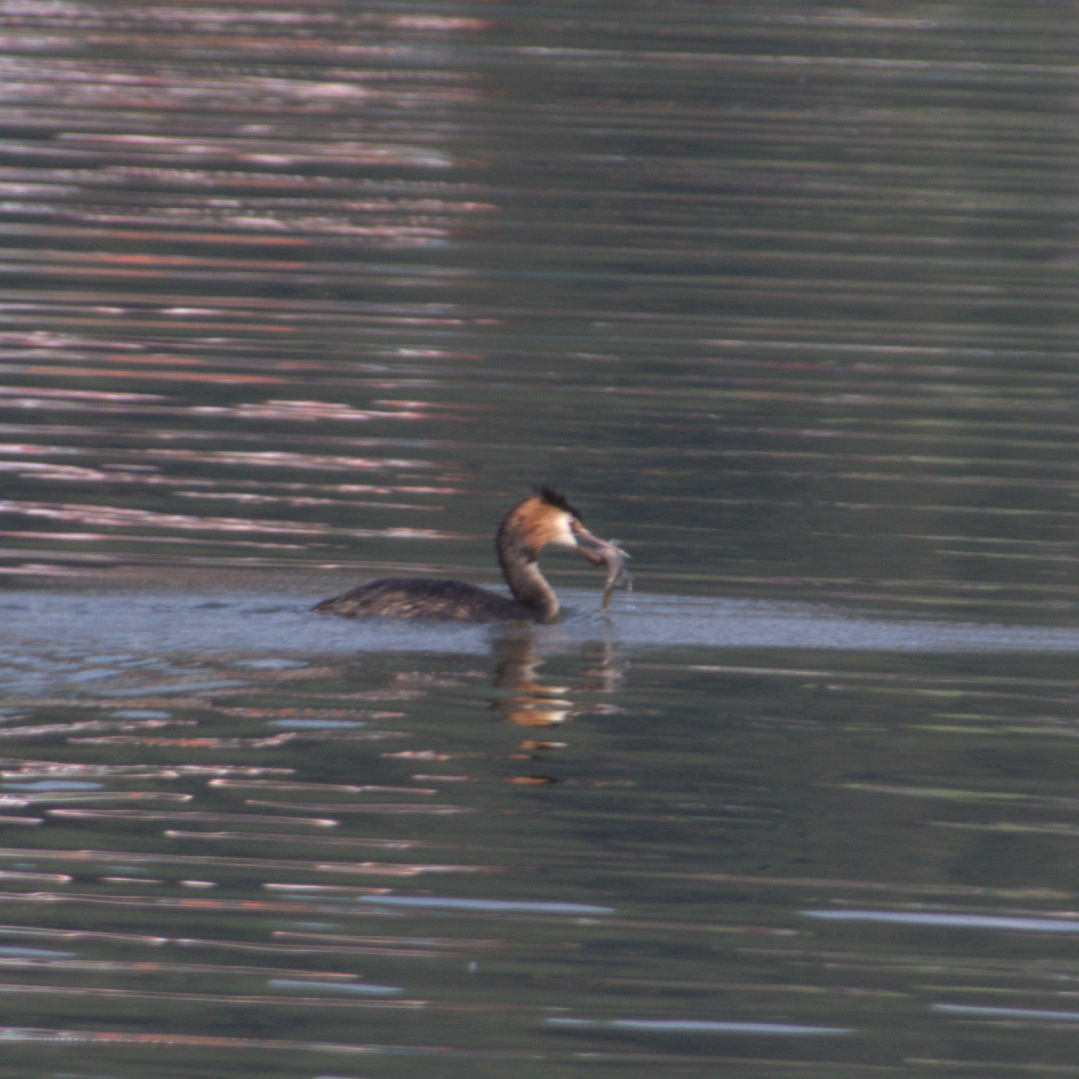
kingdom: Animalia
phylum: Chordata
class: Aves
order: Podicipediformes
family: Podicipedidae
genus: Podiceps
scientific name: Podiceps cristatus
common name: Great crested grebe
